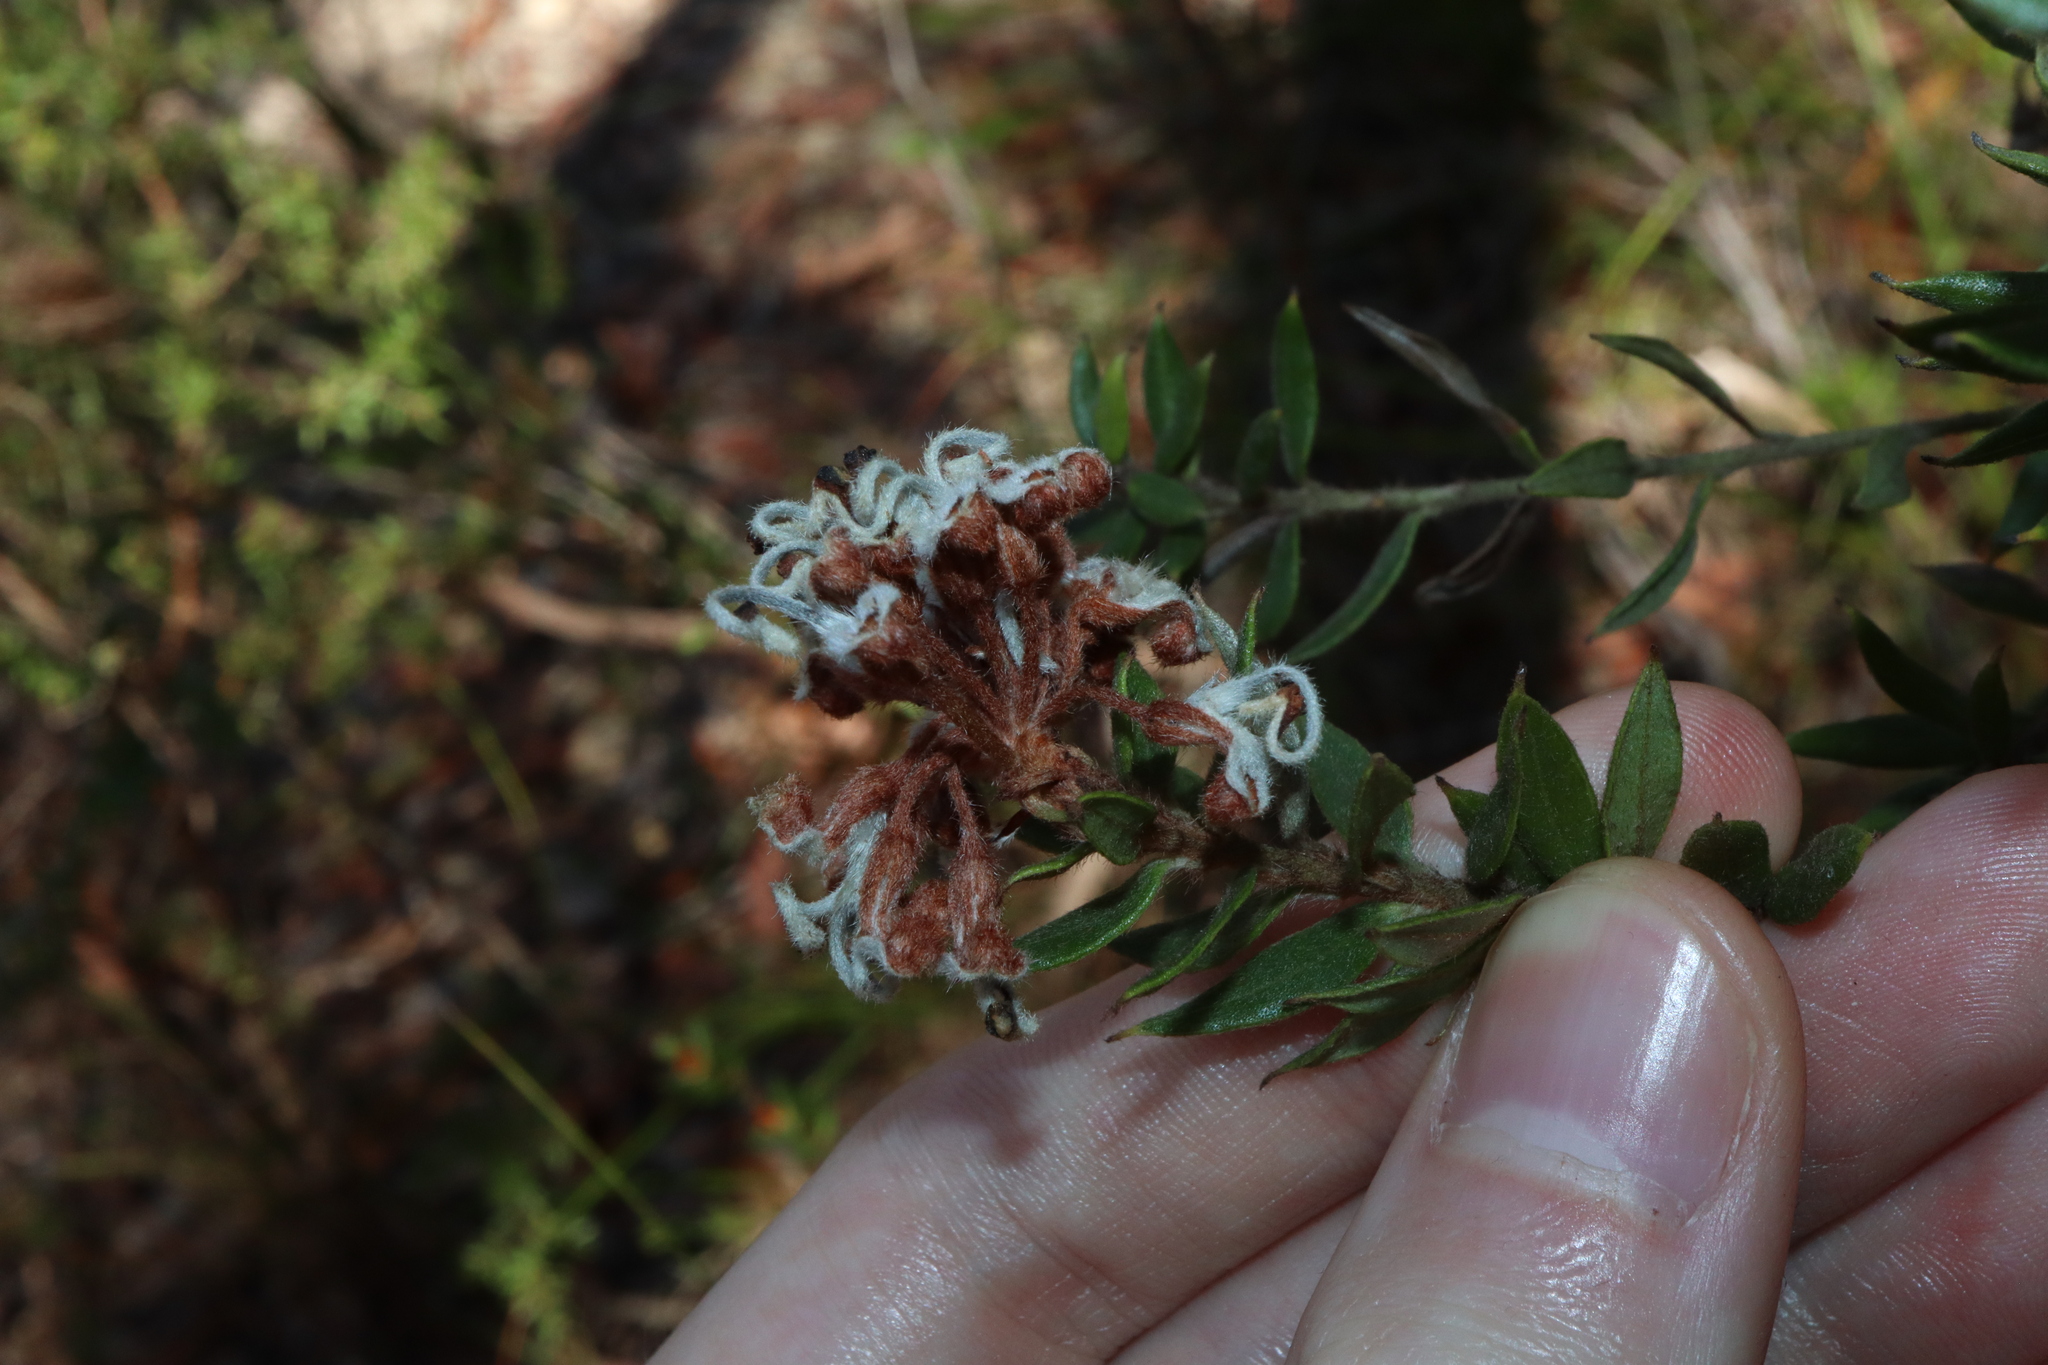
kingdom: Plantae
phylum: Tracheophyta
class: Magnoliopsida
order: Proteales
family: Proteaceae
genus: Grevillea
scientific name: Grevillea buxifolia
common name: Grey spiderflower
